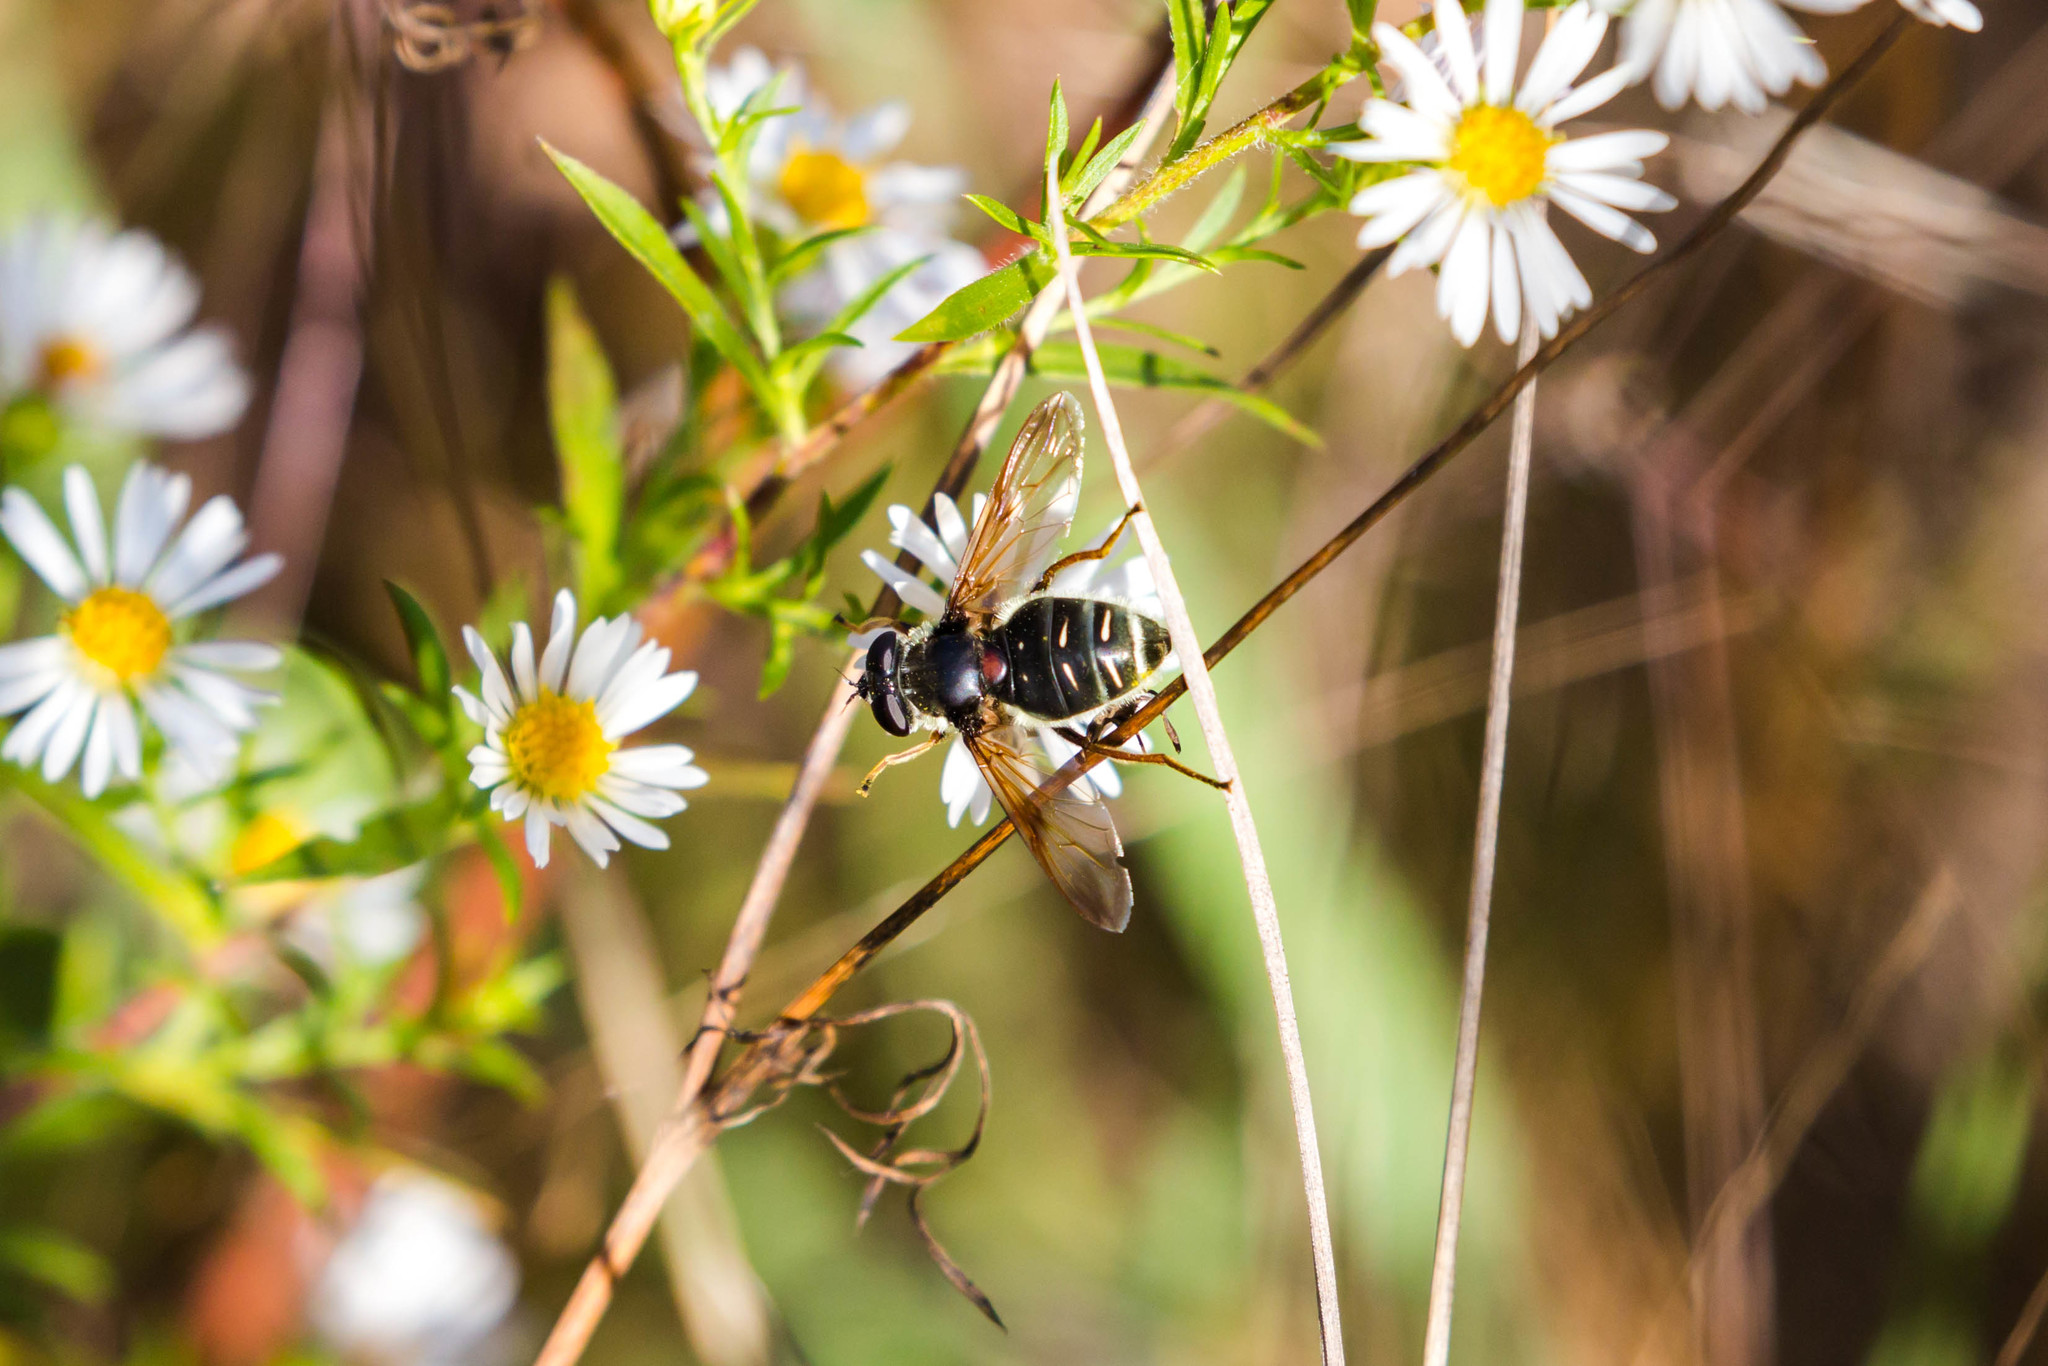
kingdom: Animalia
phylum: Arthropoda
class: Insecta
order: Diptera
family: Syrphidae
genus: Sericomyia
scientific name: Sericomyia militaris
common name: Narrow-banded pond fly
